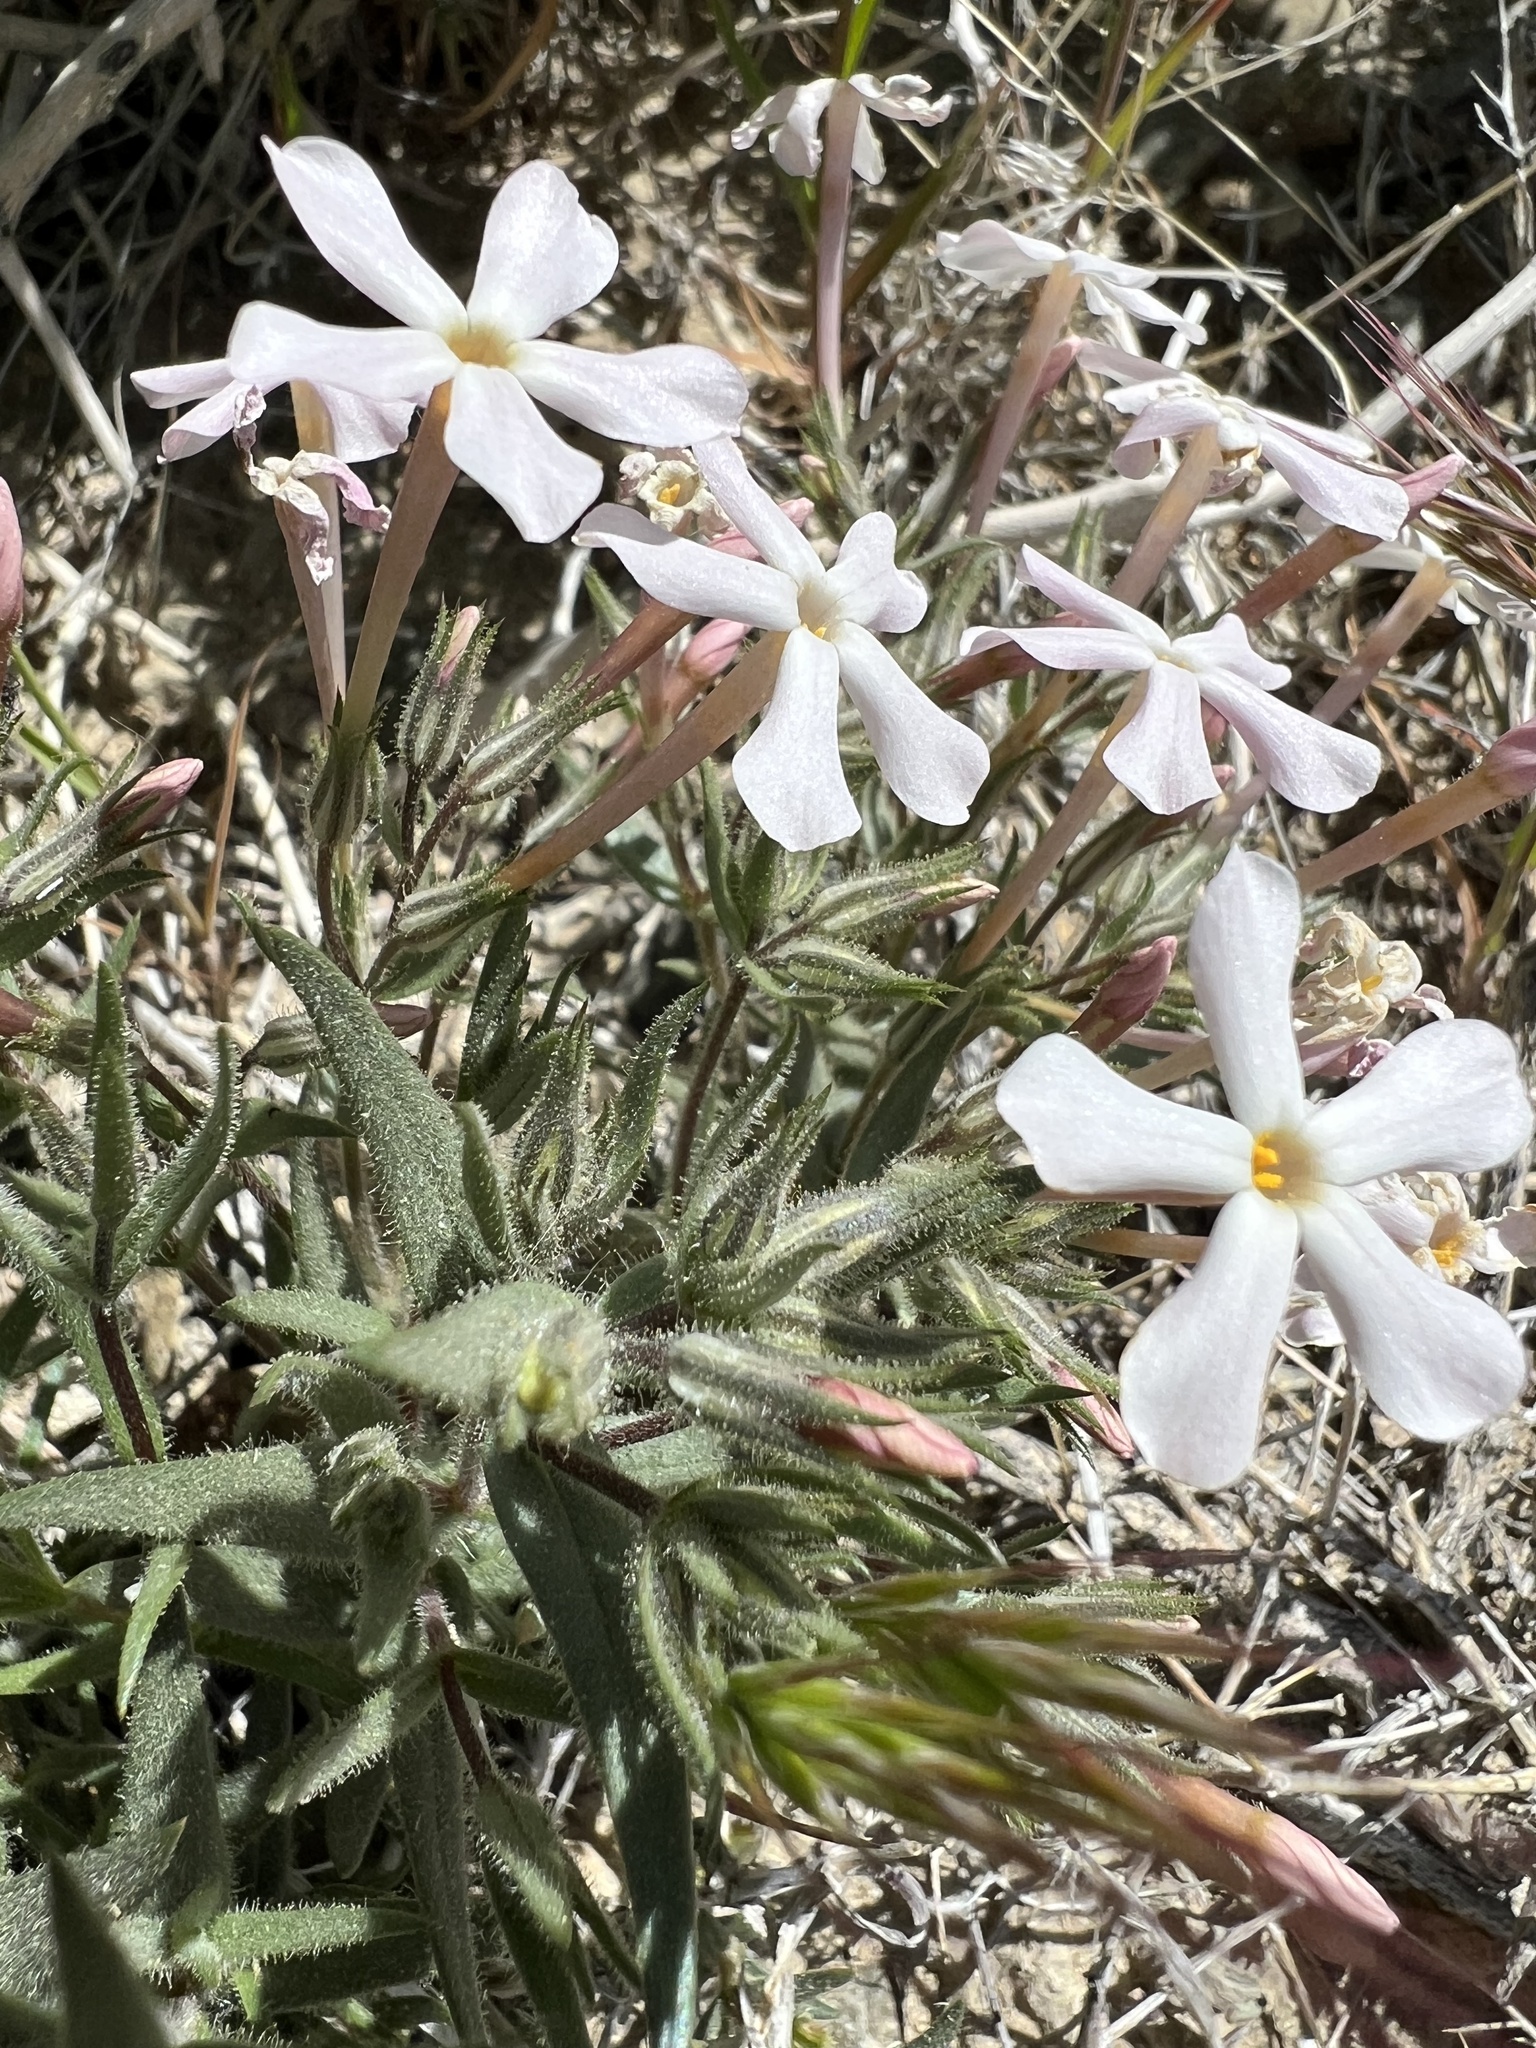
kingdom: Plantae
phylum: Tracheophyta
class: Magnoliopsida
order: Ericales
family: Polemoniaceae
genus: Phlox
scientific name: Phlox longifolia
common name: Longleaf phlox
